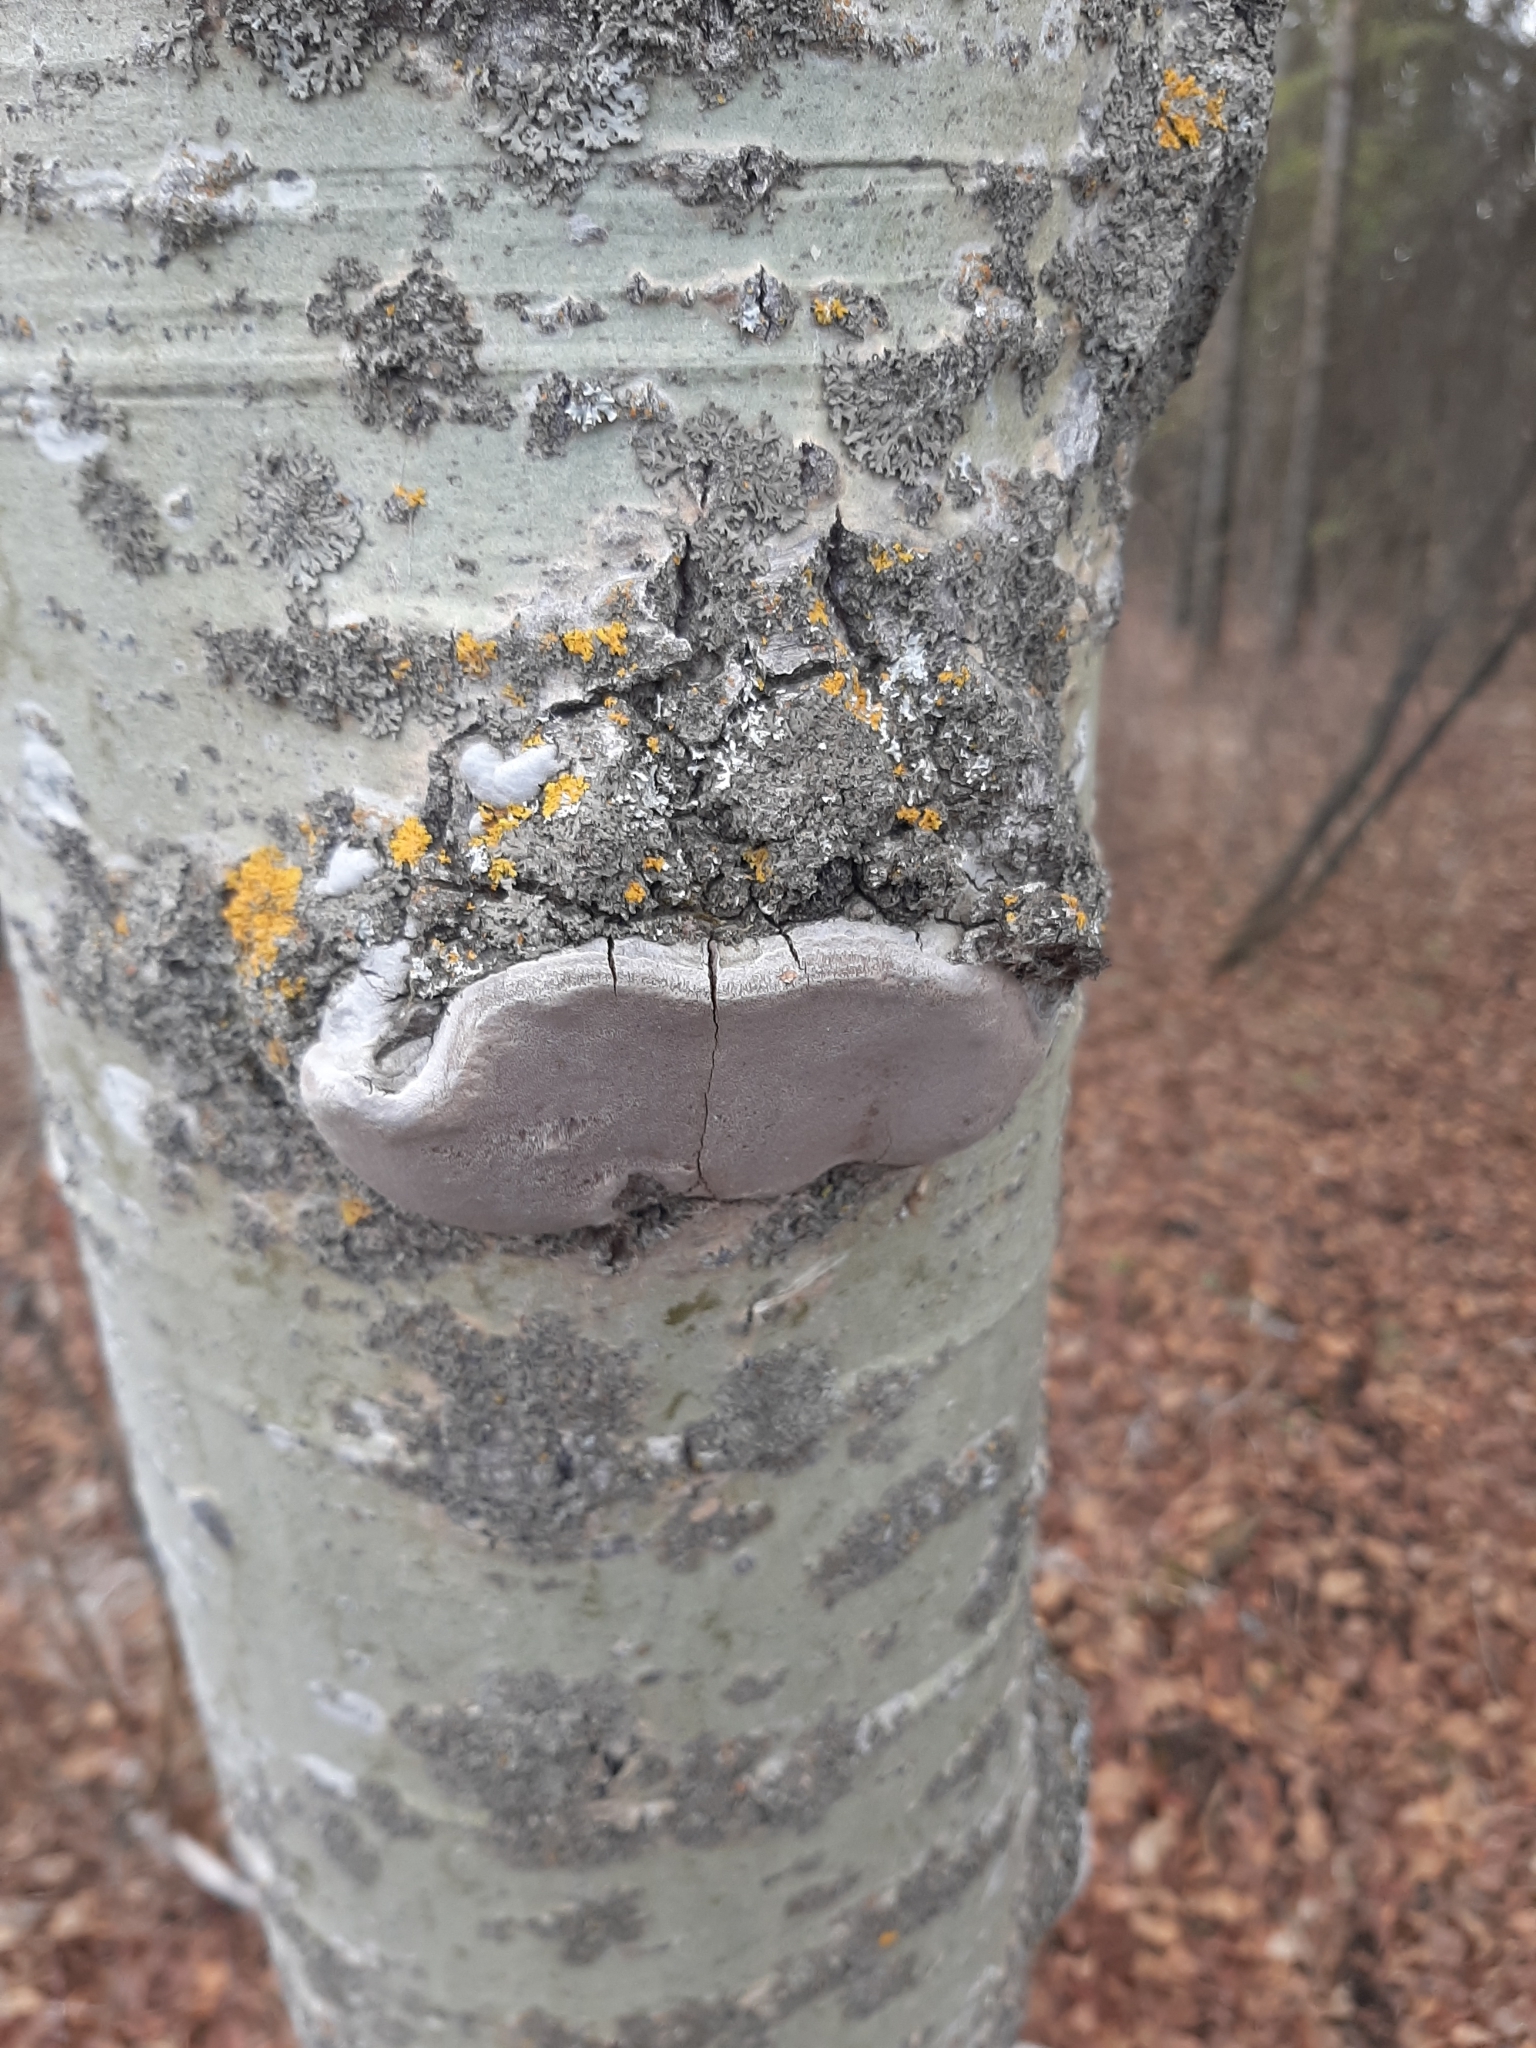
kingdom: Fungi
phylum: Basidiomycota
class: Agaricomycetes
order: Hymenochaetales
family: Hymenochaetaceae
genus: Phellinus
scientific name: Phellinus tremulae
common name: Aspen bracket
